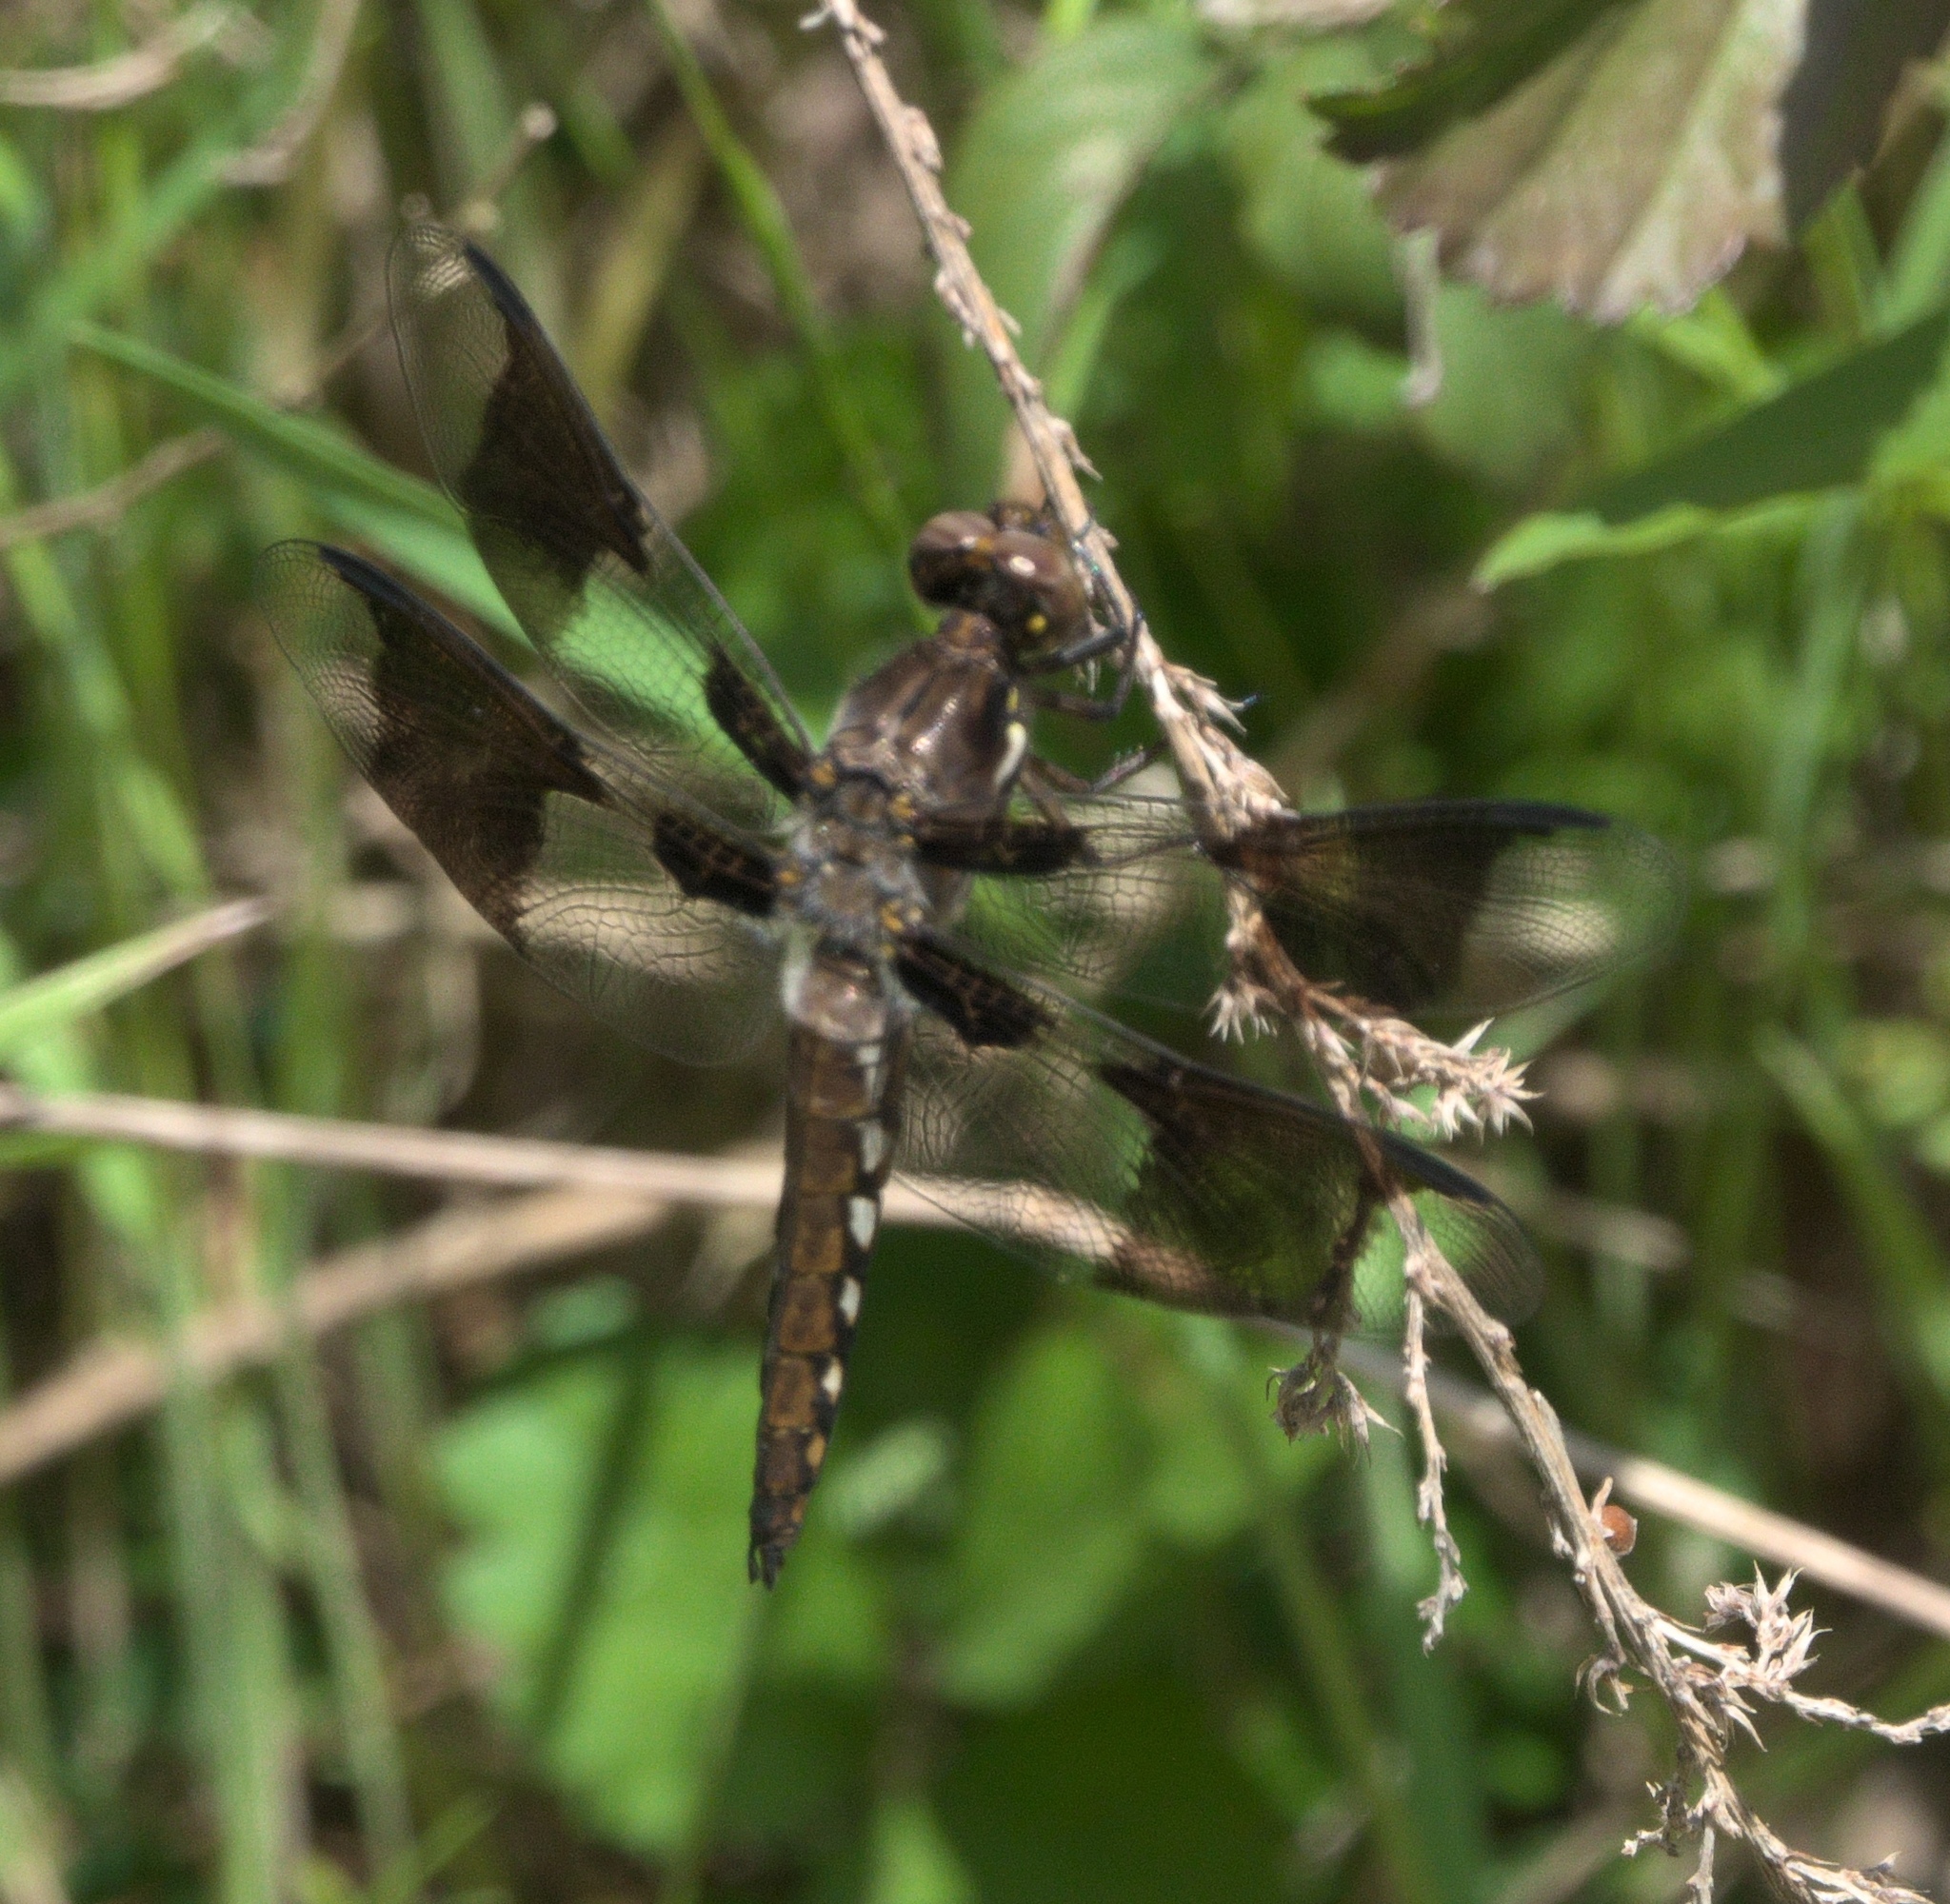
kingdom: Animalia
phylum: Arthropoda
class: Insecta
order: Odonata
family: Libellulidae
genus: Plathemis
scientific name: Plathemis lydia
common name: Common whitetail
